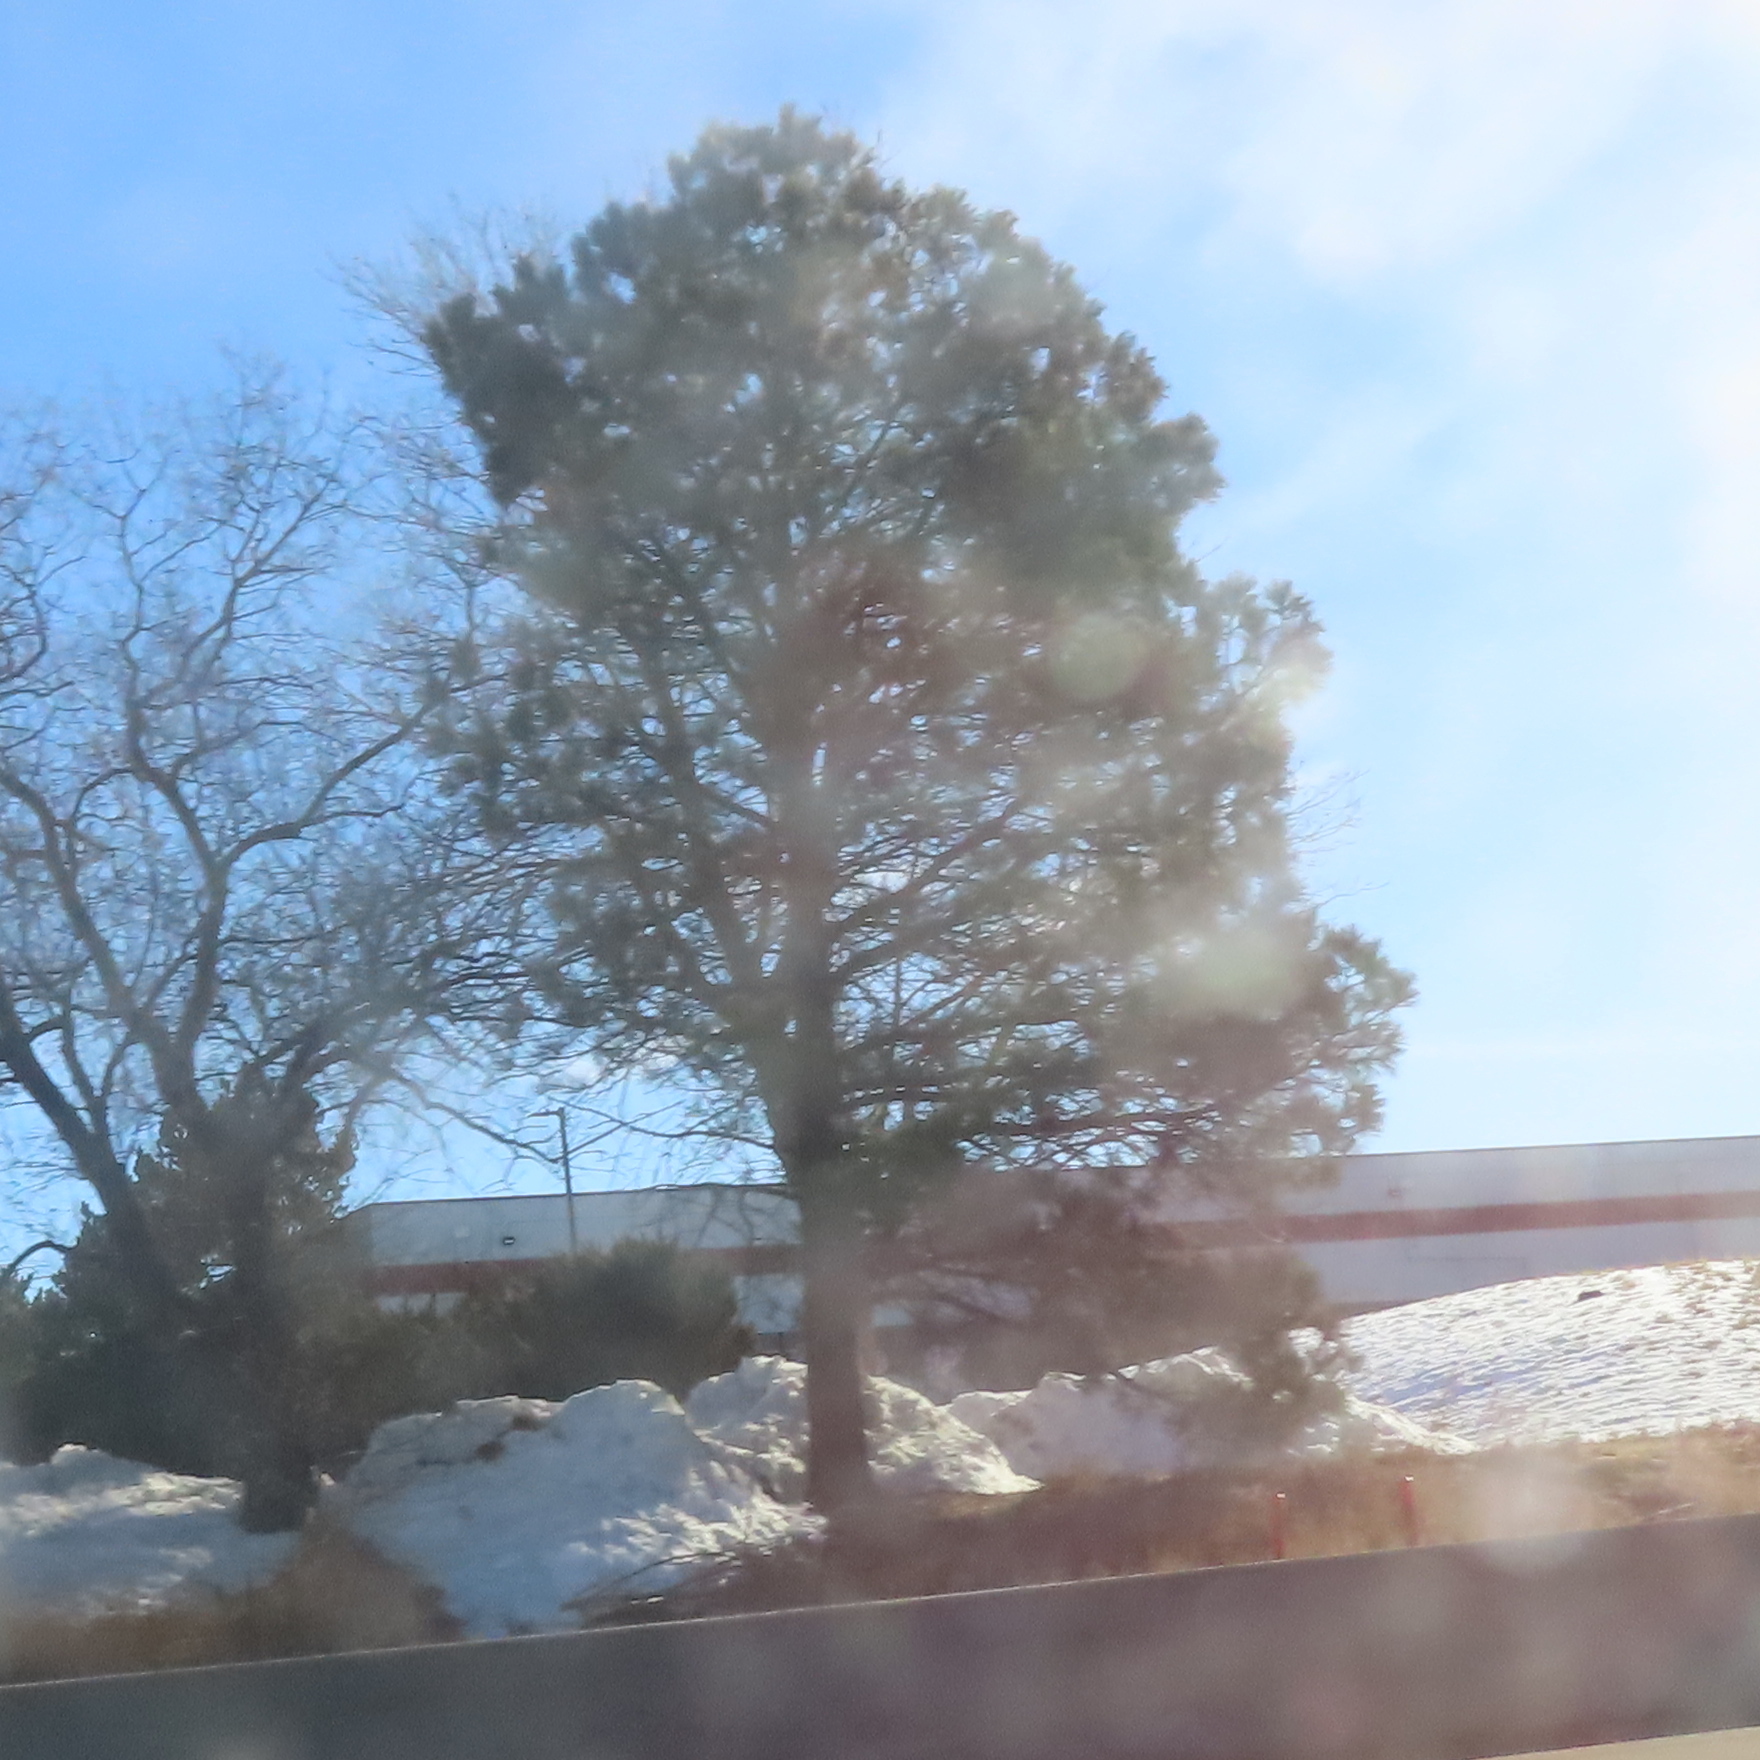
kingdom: Plantae
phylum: Tracheophyta
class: Pinopsida
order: Pinales
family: Pinaceae
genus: Pinus
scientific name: Pinus ponderosa
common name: Western yellow-pine
